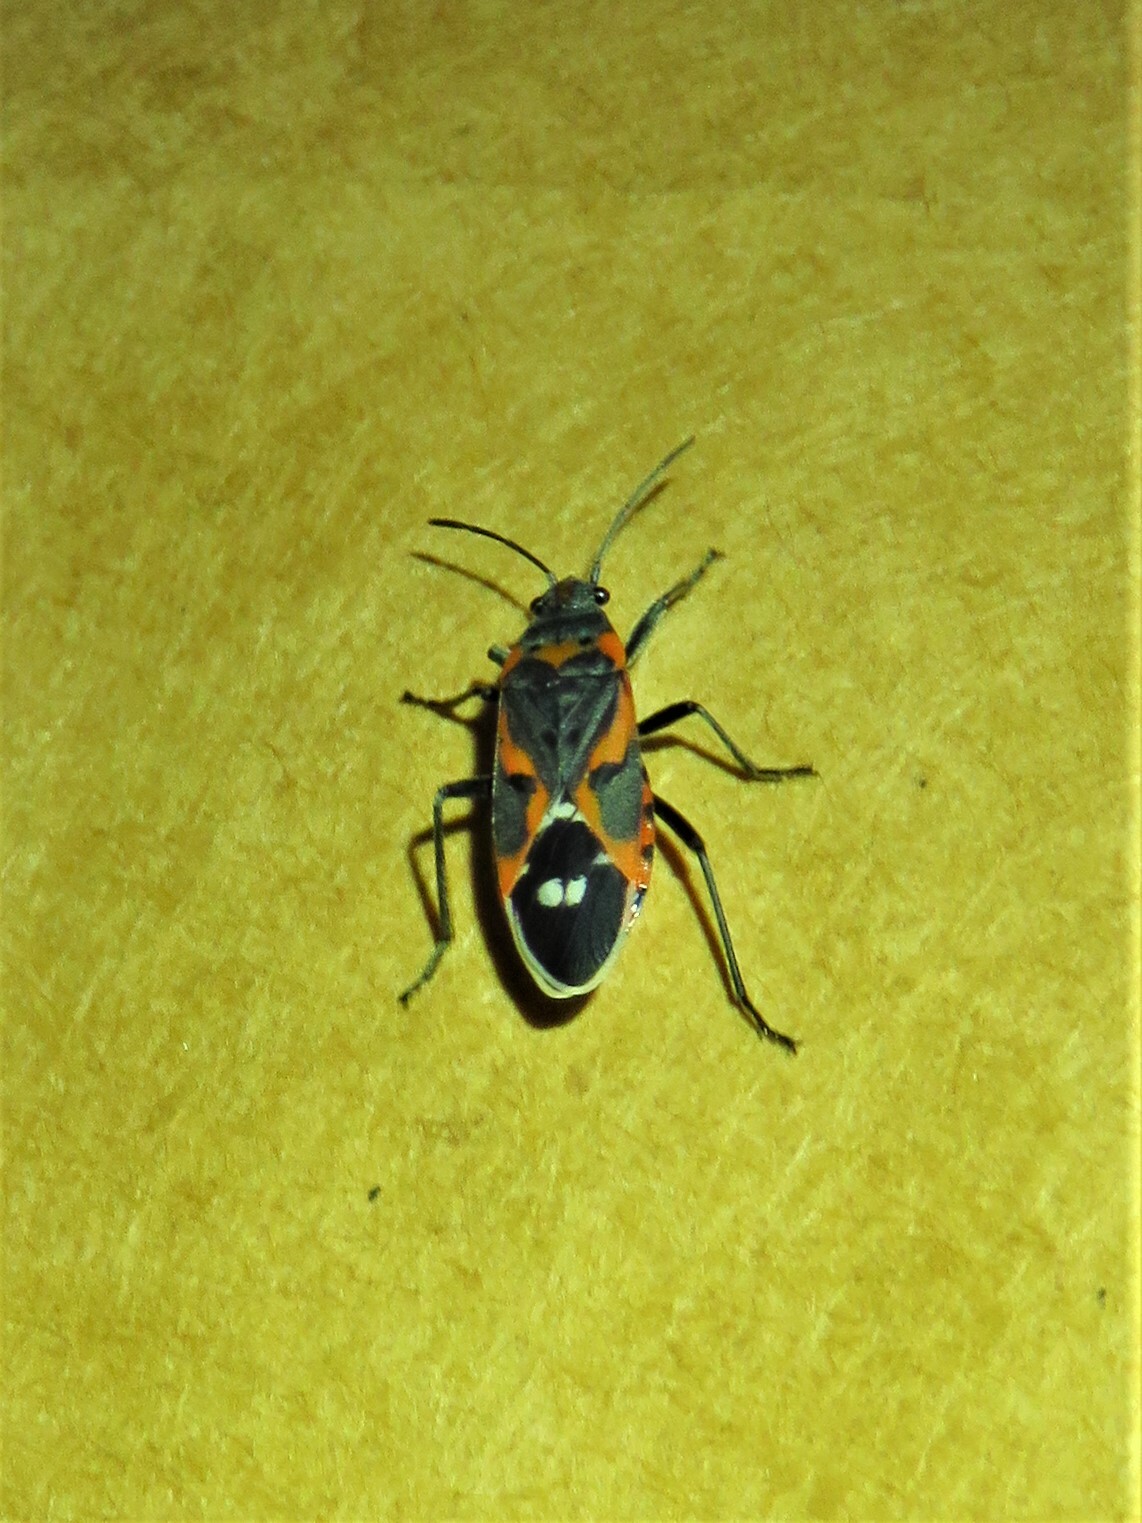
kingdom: Animalia
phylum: Arthropoda
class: Insecta
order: Hemiptera
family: Lygaeidae
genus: Lygaeus
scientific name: Lygaeus kalmii
